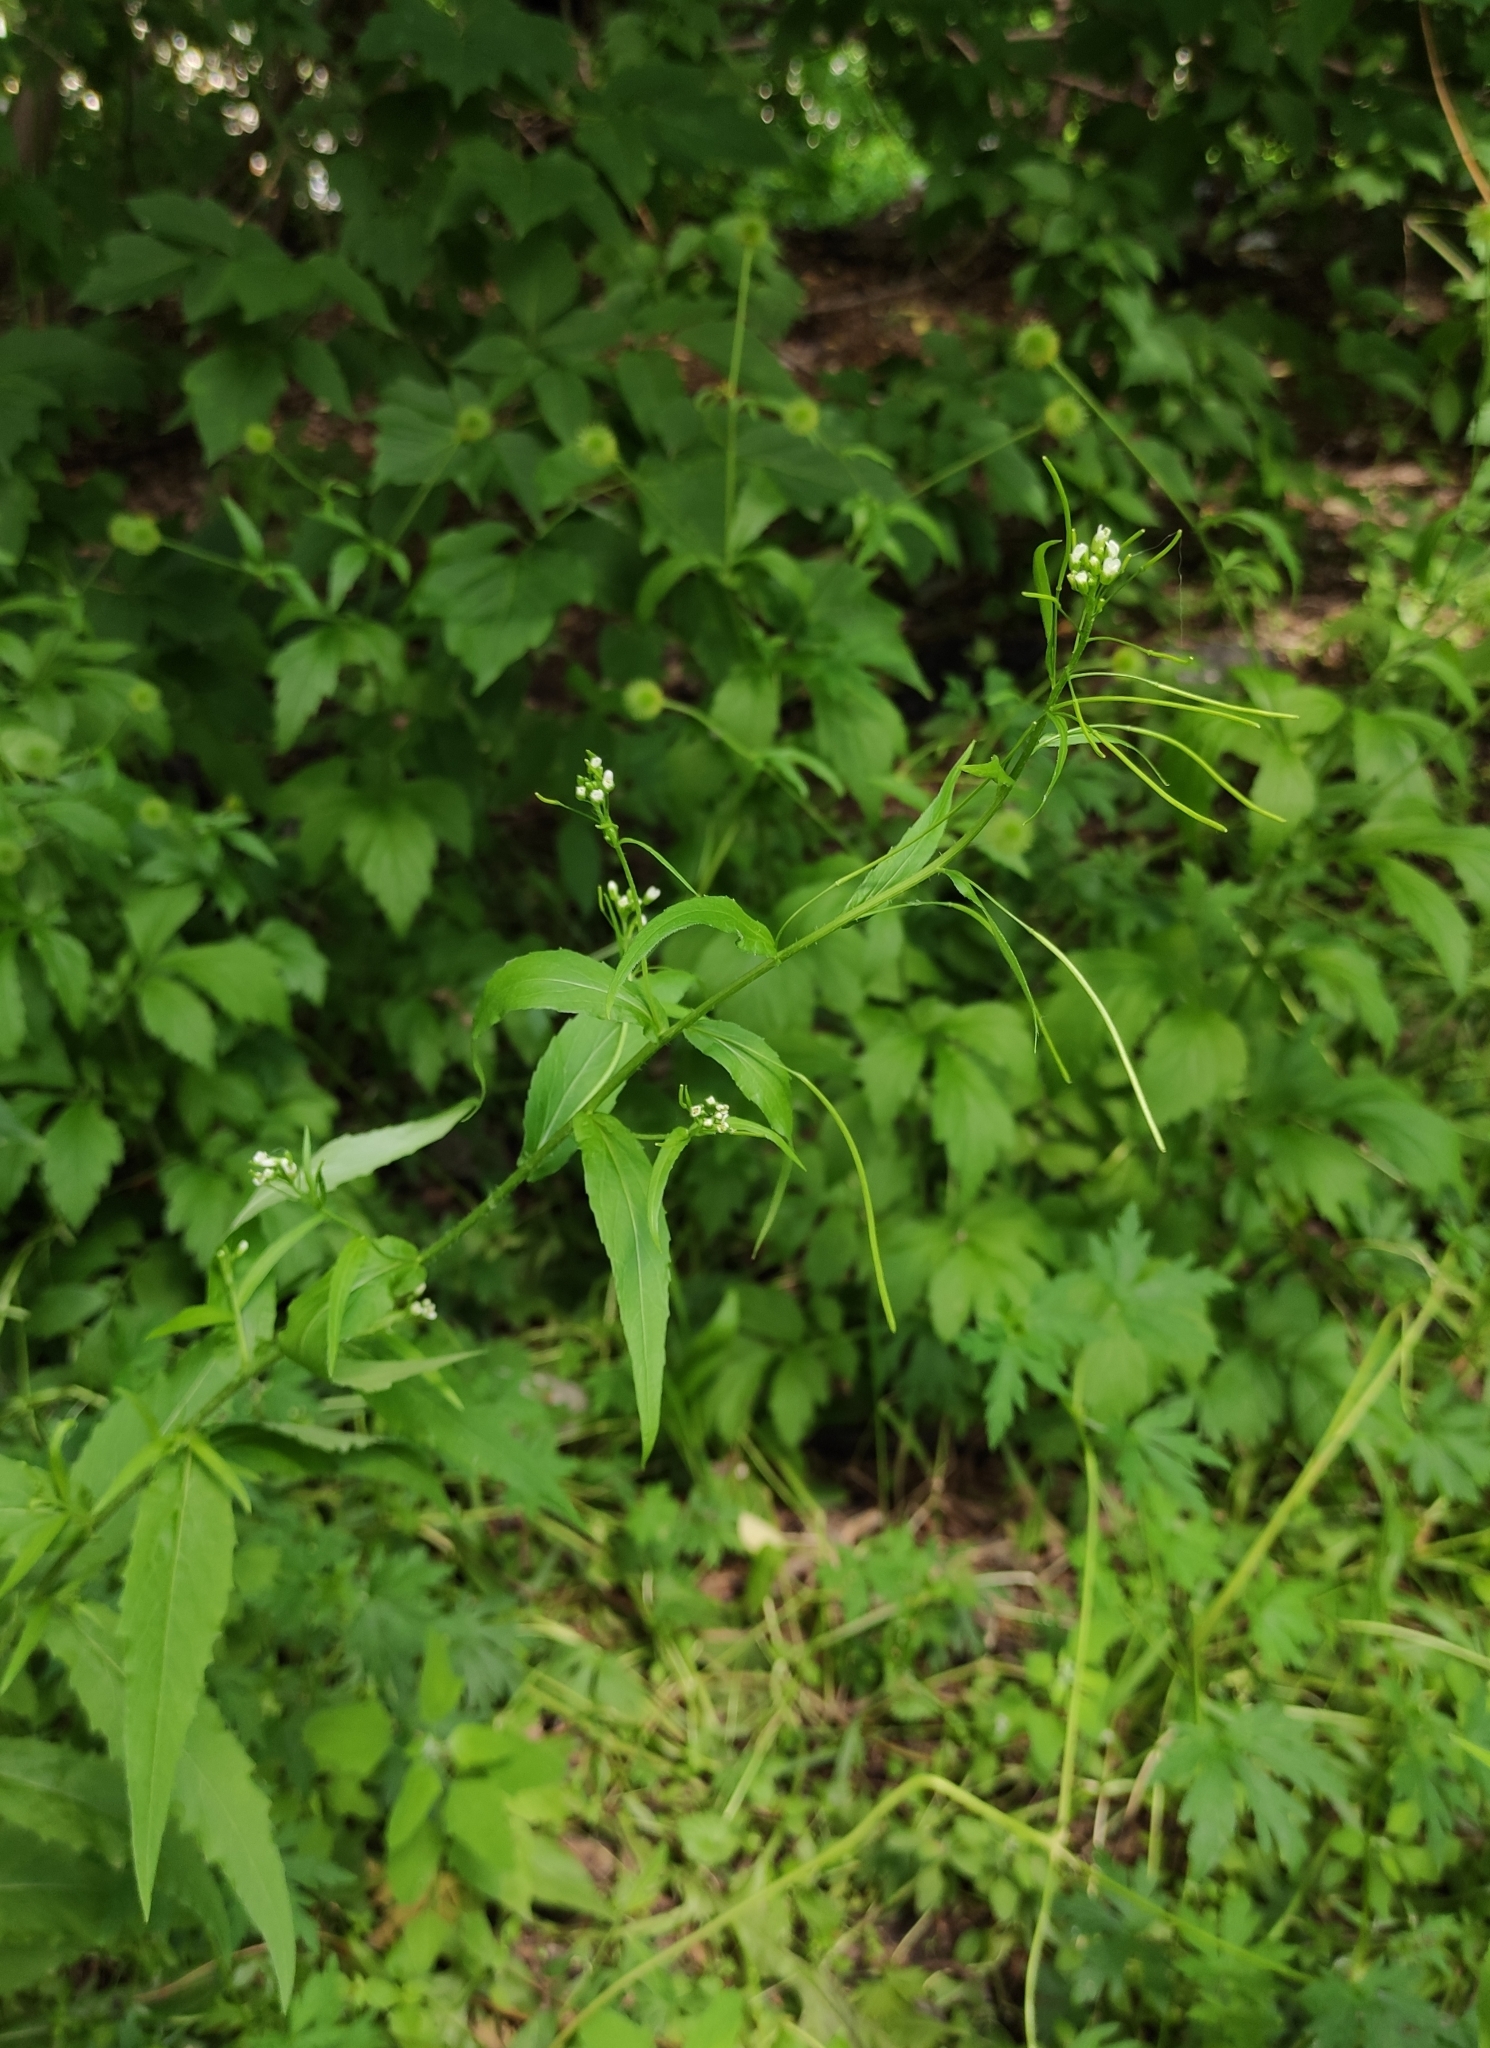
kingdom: Plantae
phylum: Tracheophyta
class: Magnoliopsida
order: Brassicales
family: Brassicaceae
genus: Catolobus
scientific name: Catolobus pendulus
